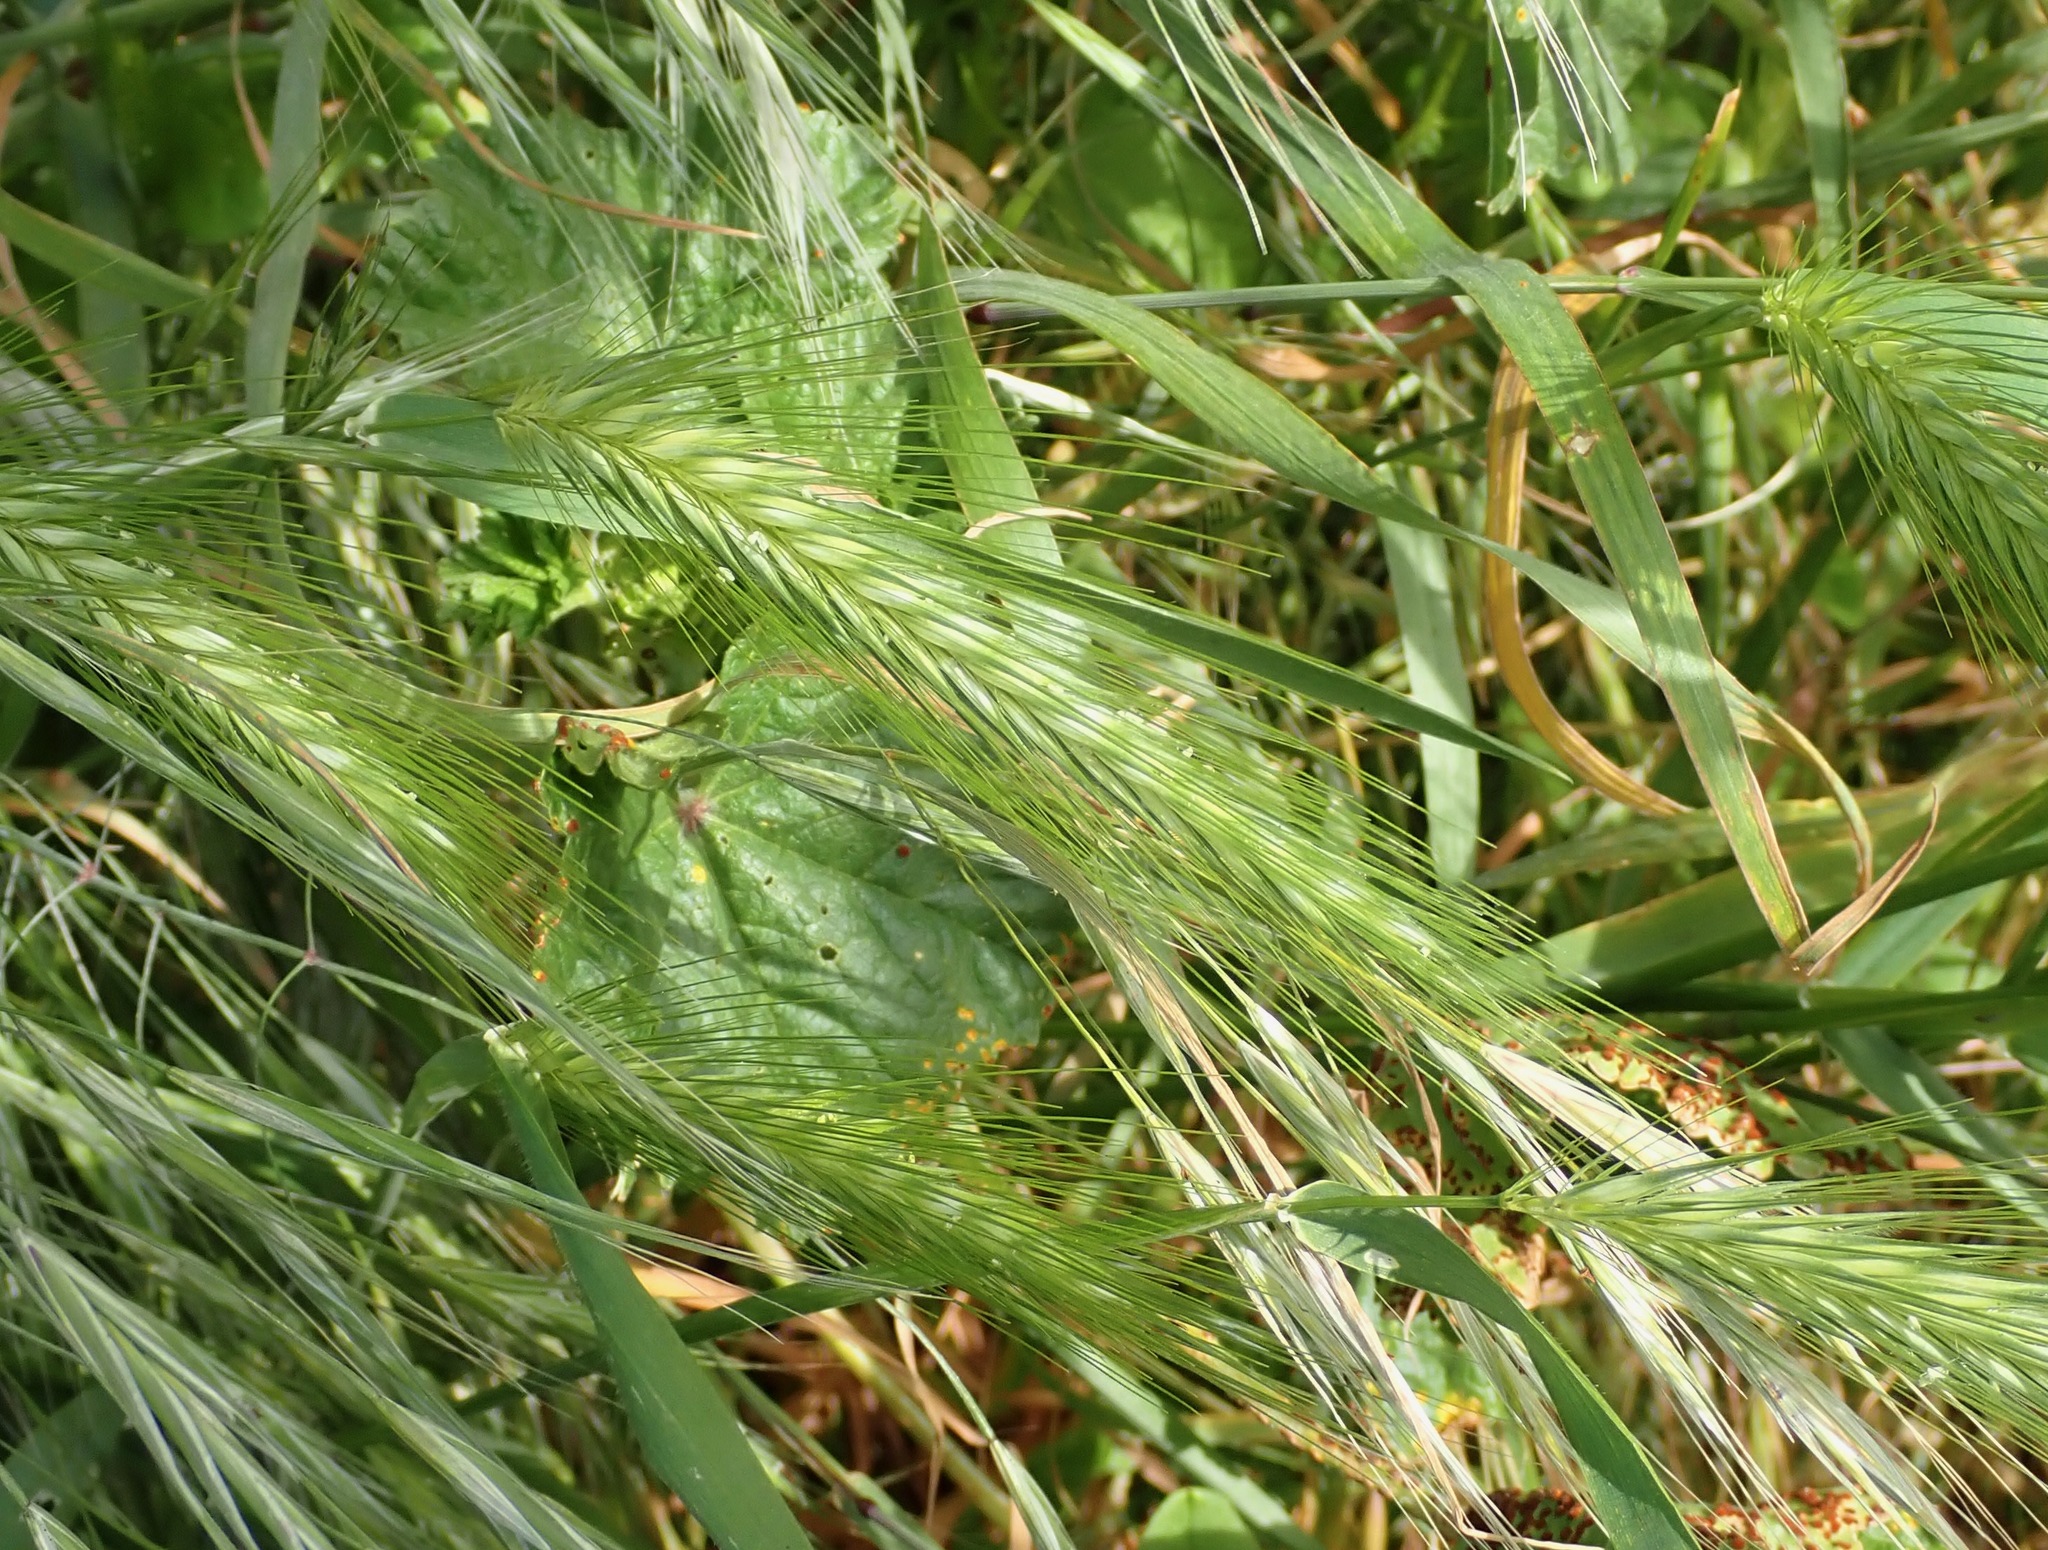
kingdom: Plantae
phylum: Tracheophyta
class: Liliopsida
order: Poales
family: Poaceae
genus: Hordeum
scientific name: Hordeum murinum
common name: Wall barley
